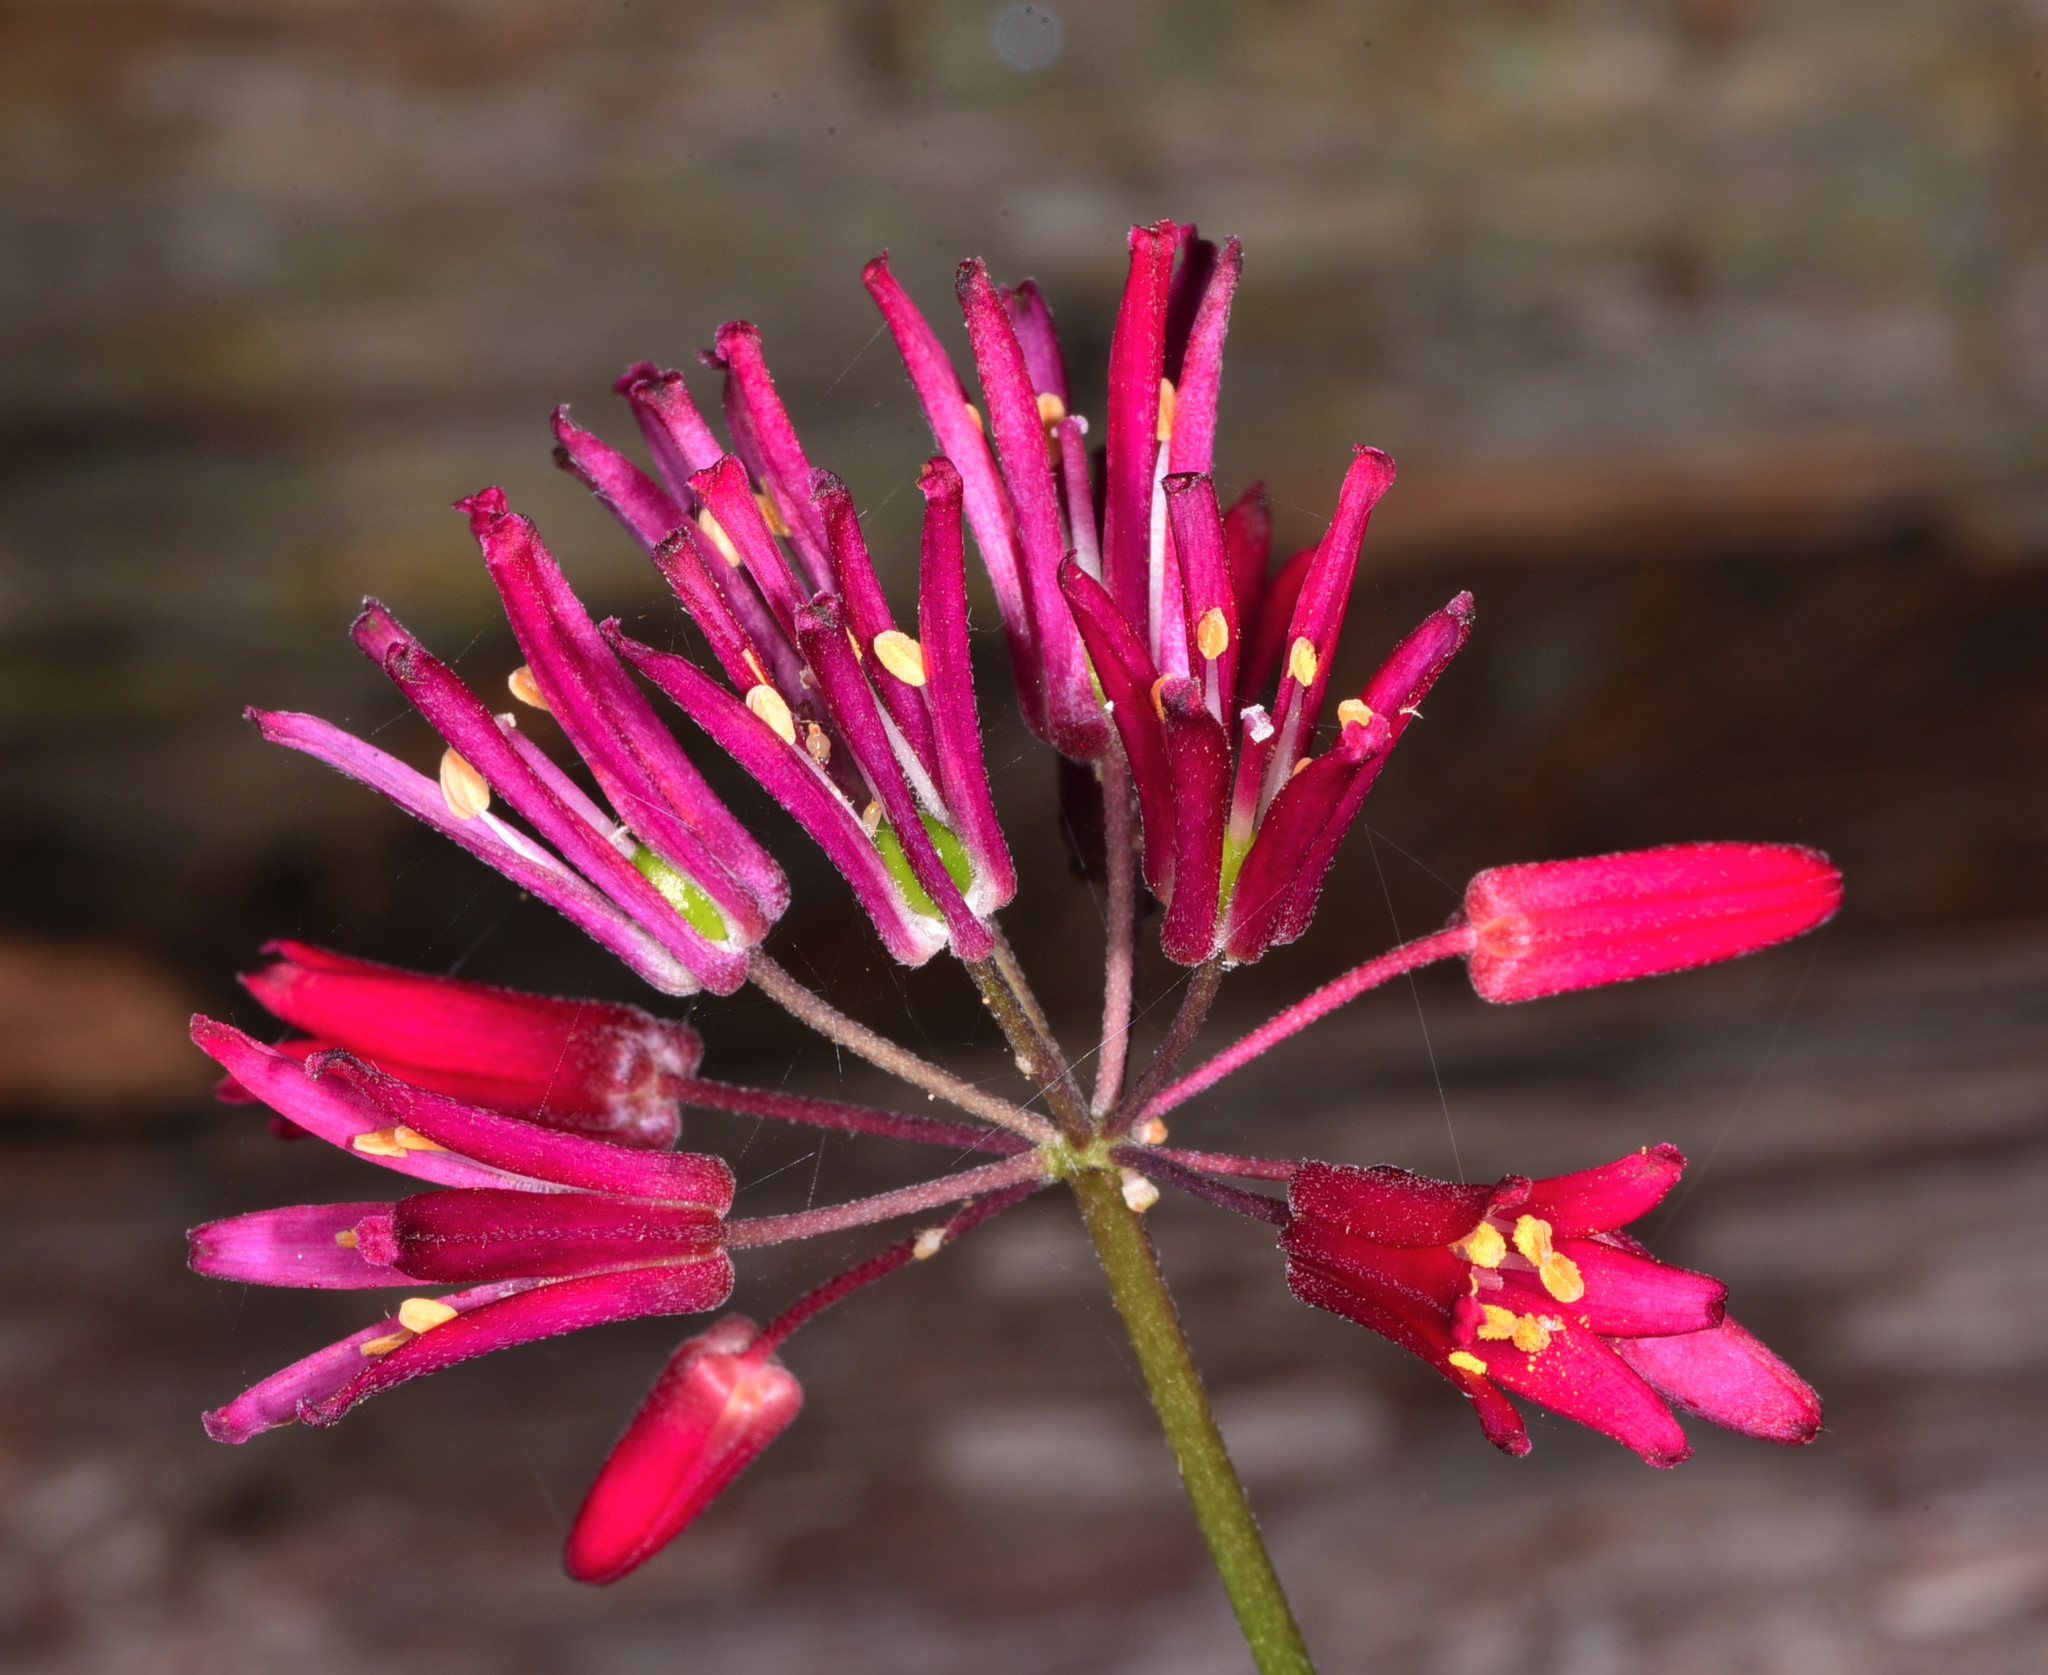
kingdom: Plantae
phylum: Tracheophyta
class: Liliopsida
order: Liliales
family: Liliaceae
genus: Clintonia
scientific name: Clintonia andrewsiana
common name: Red clintonia
